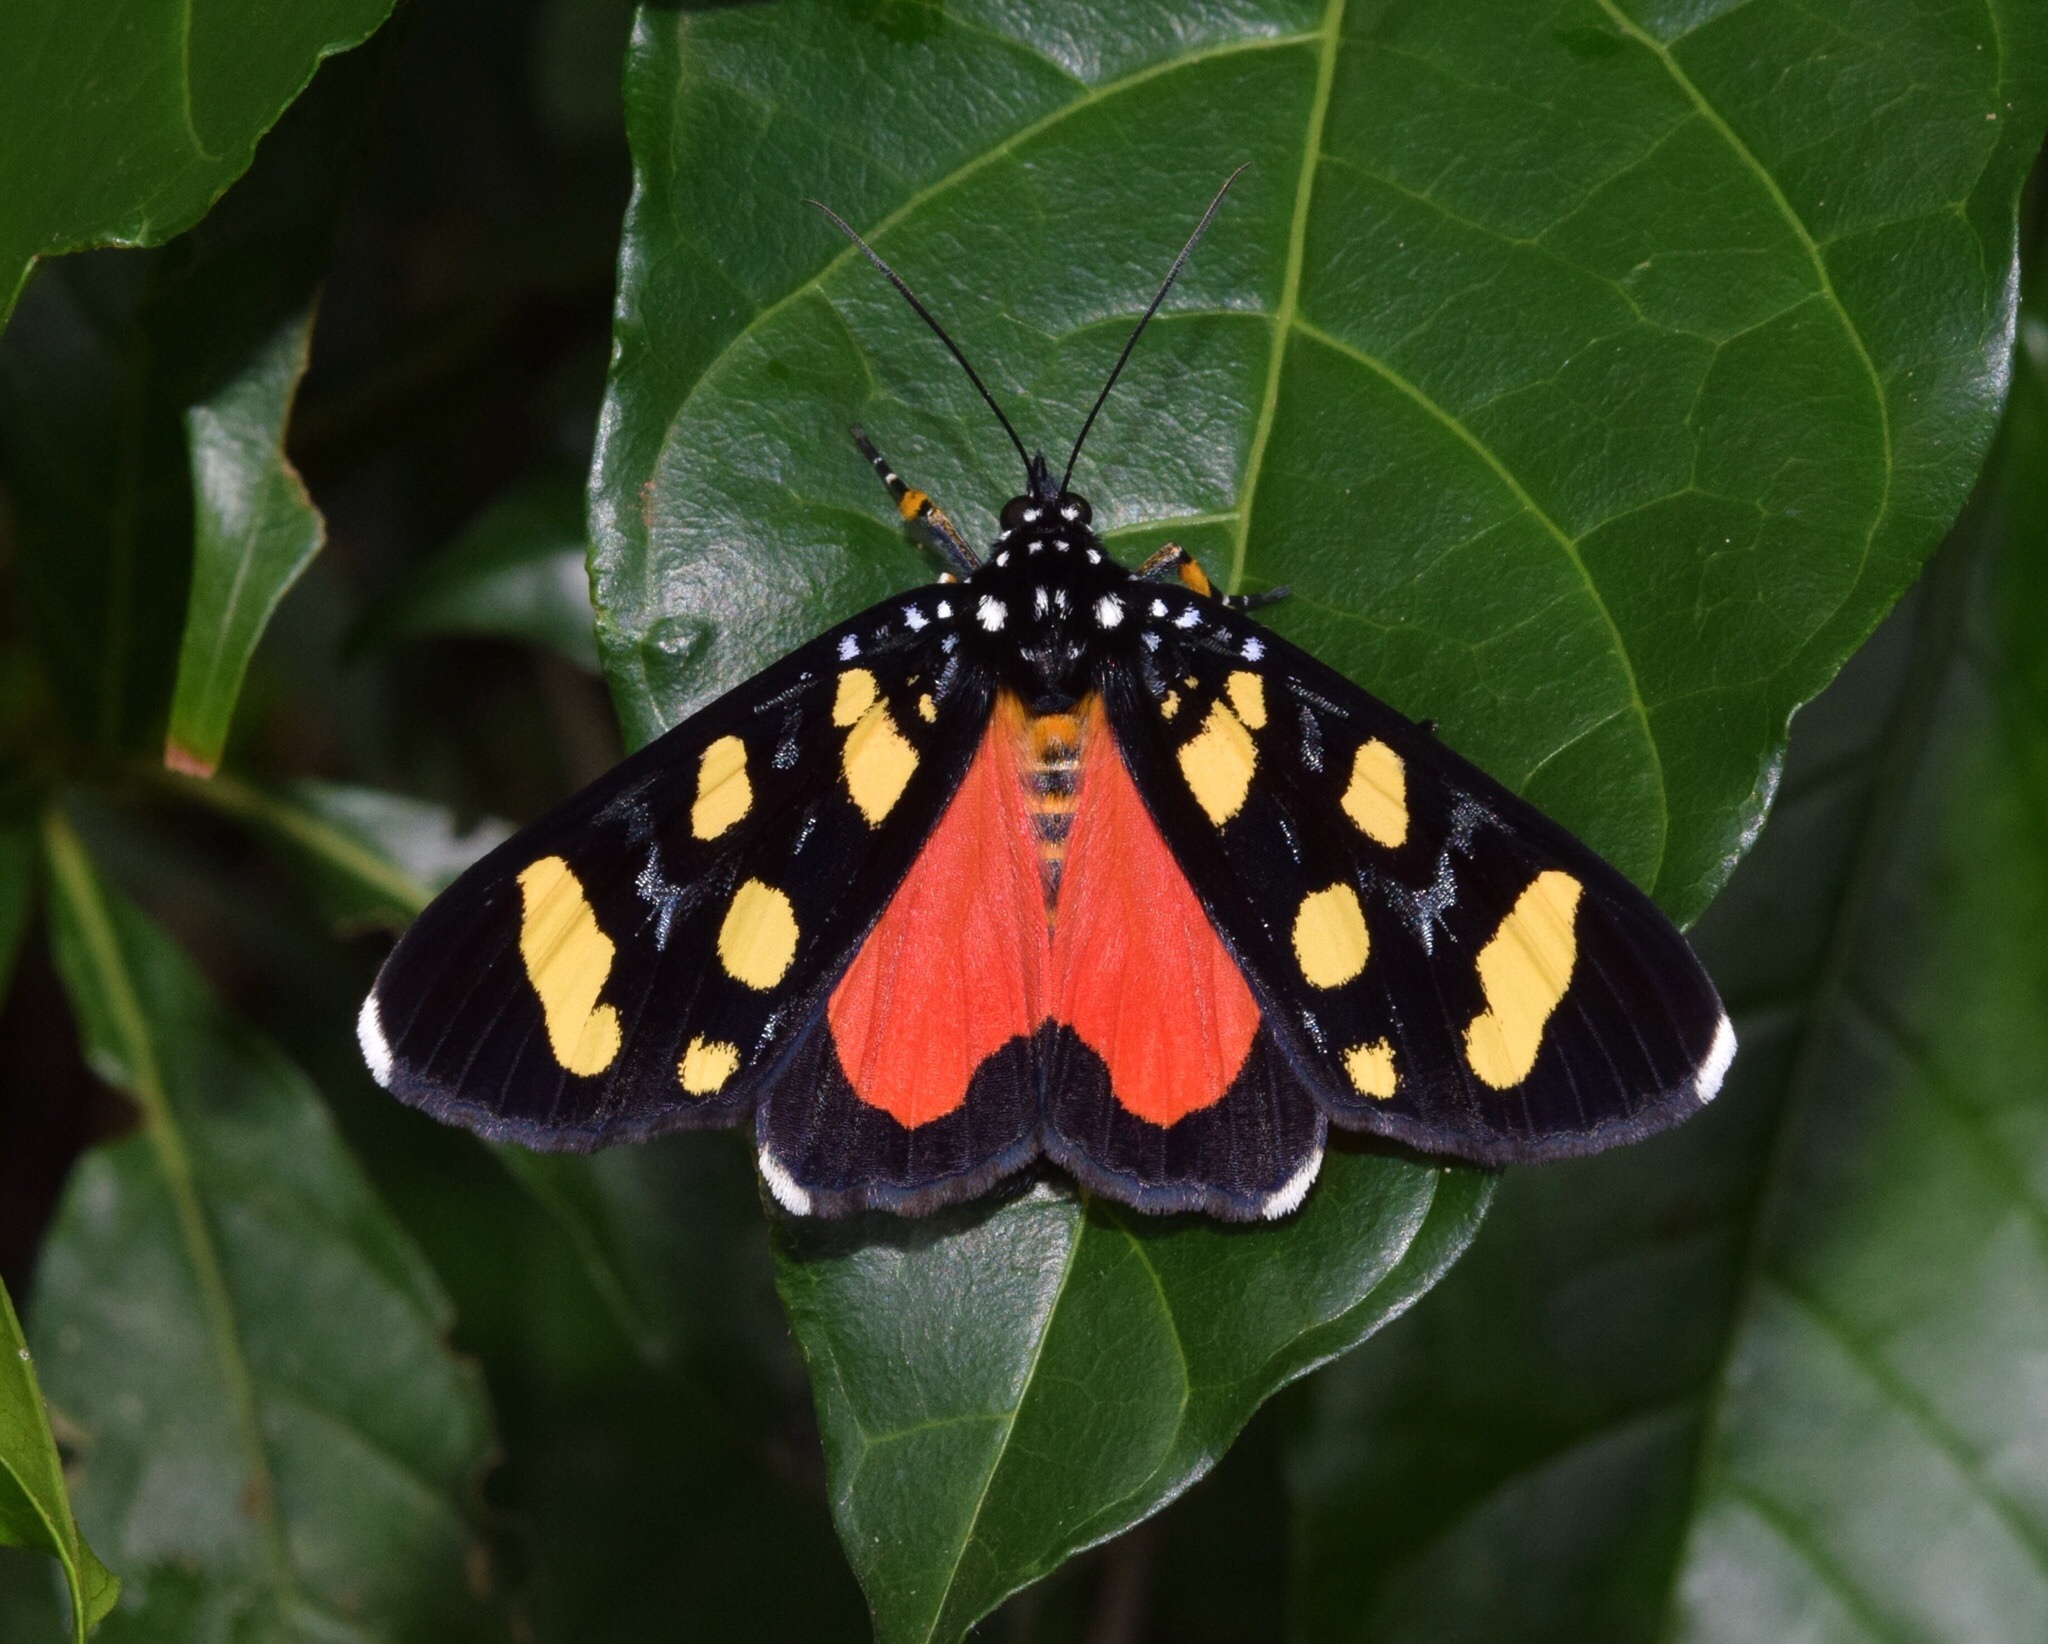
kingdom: Animalia
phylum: Arthropoda
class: Insecta
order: Lepidoptera
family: Noctuidae
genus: Heraclia
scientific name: Heraclia africana
